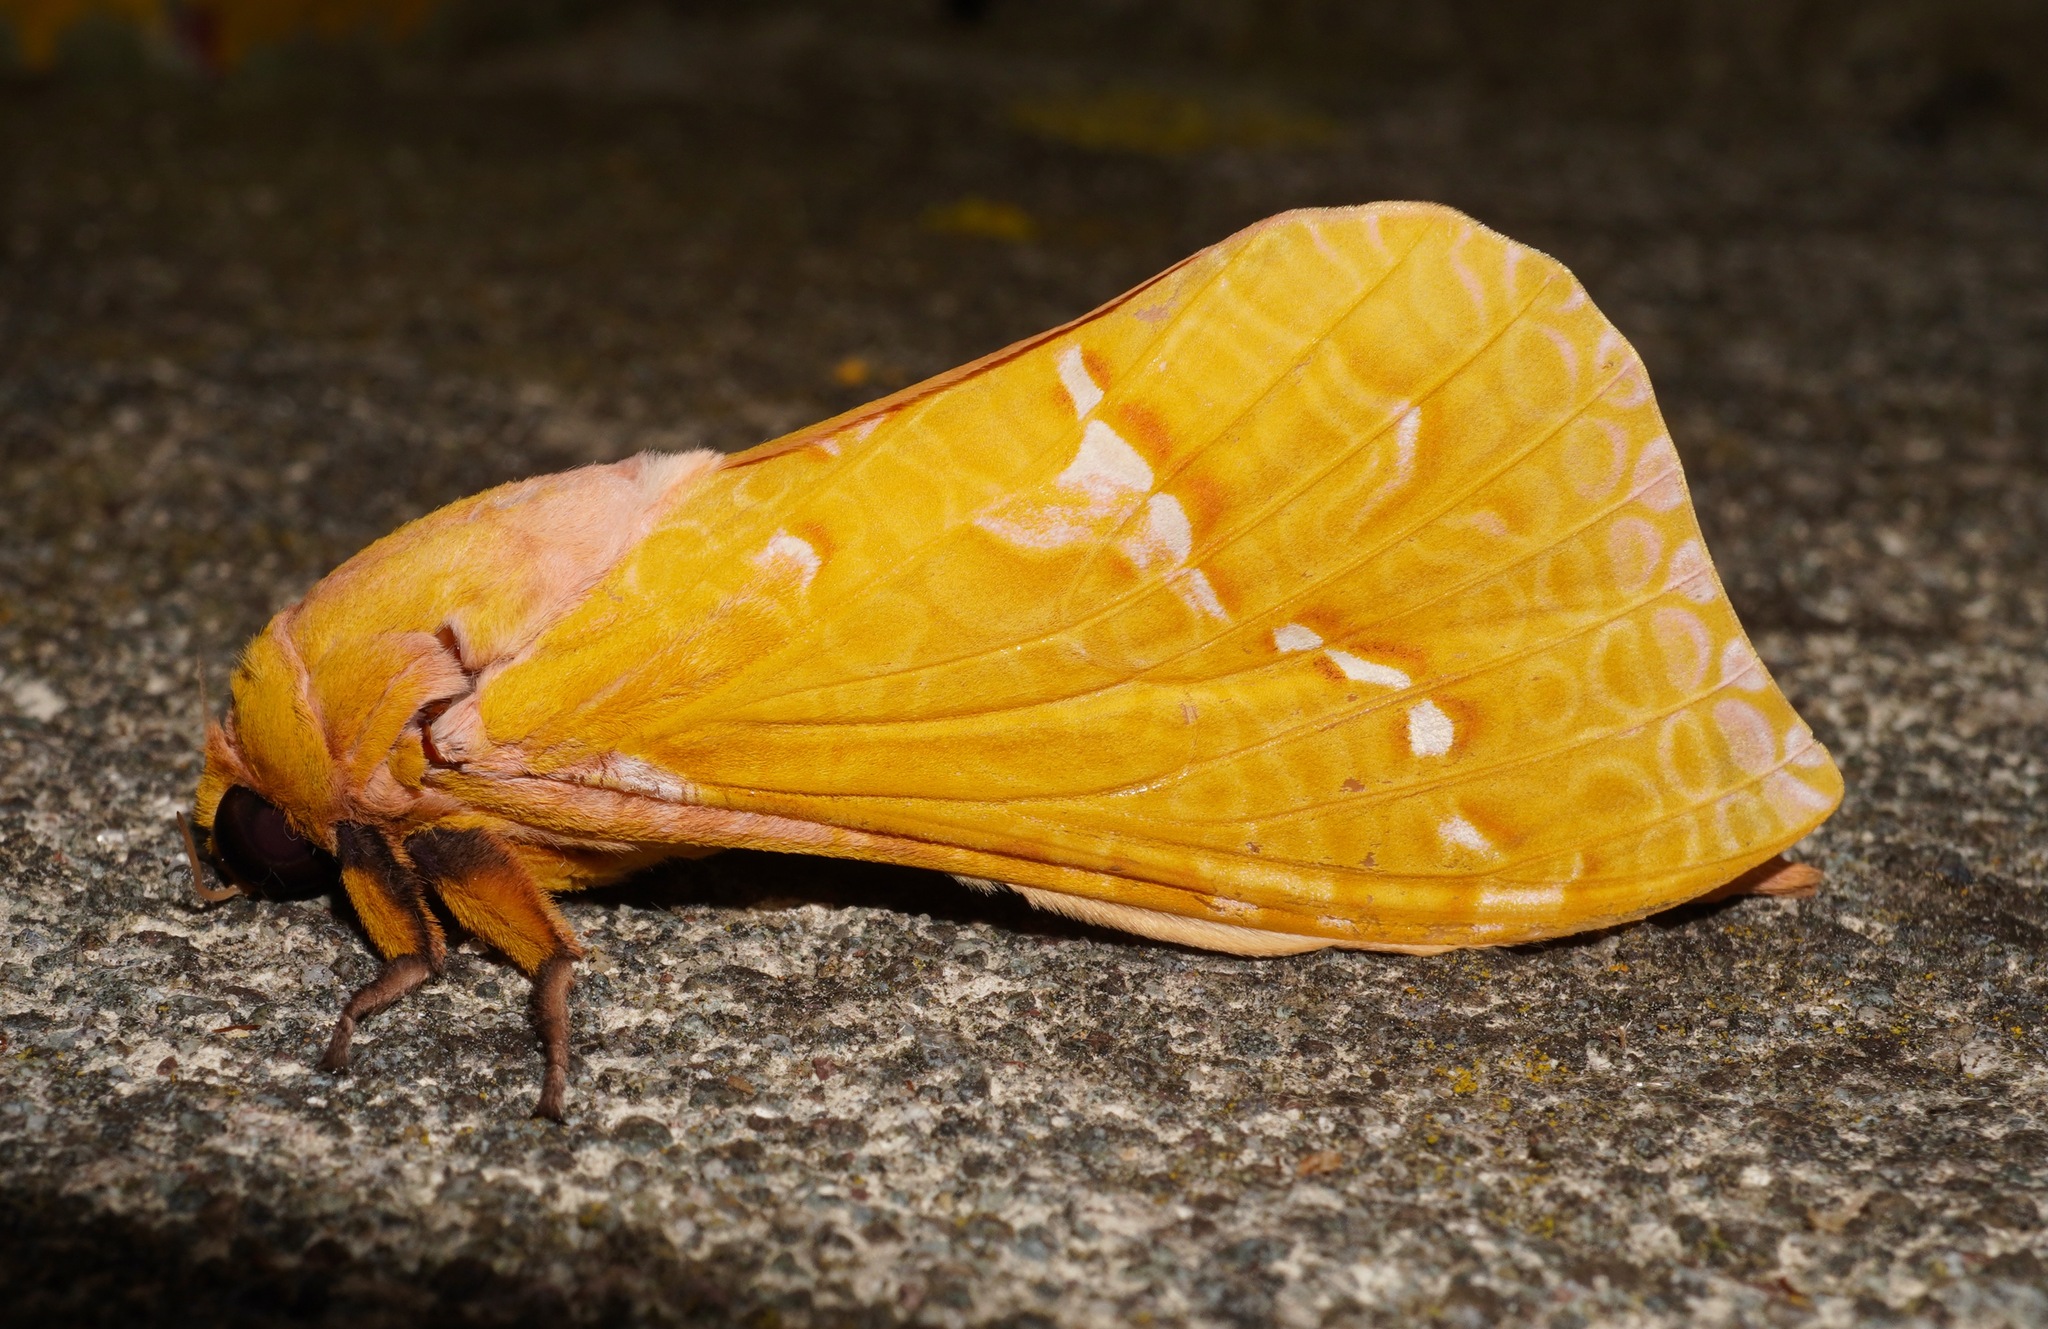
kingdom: Animalia
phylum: Arthropoda
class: Insecta
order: Lepidoptera
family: Hepialidae
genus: Aenetus
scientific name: Aenetus virescens
